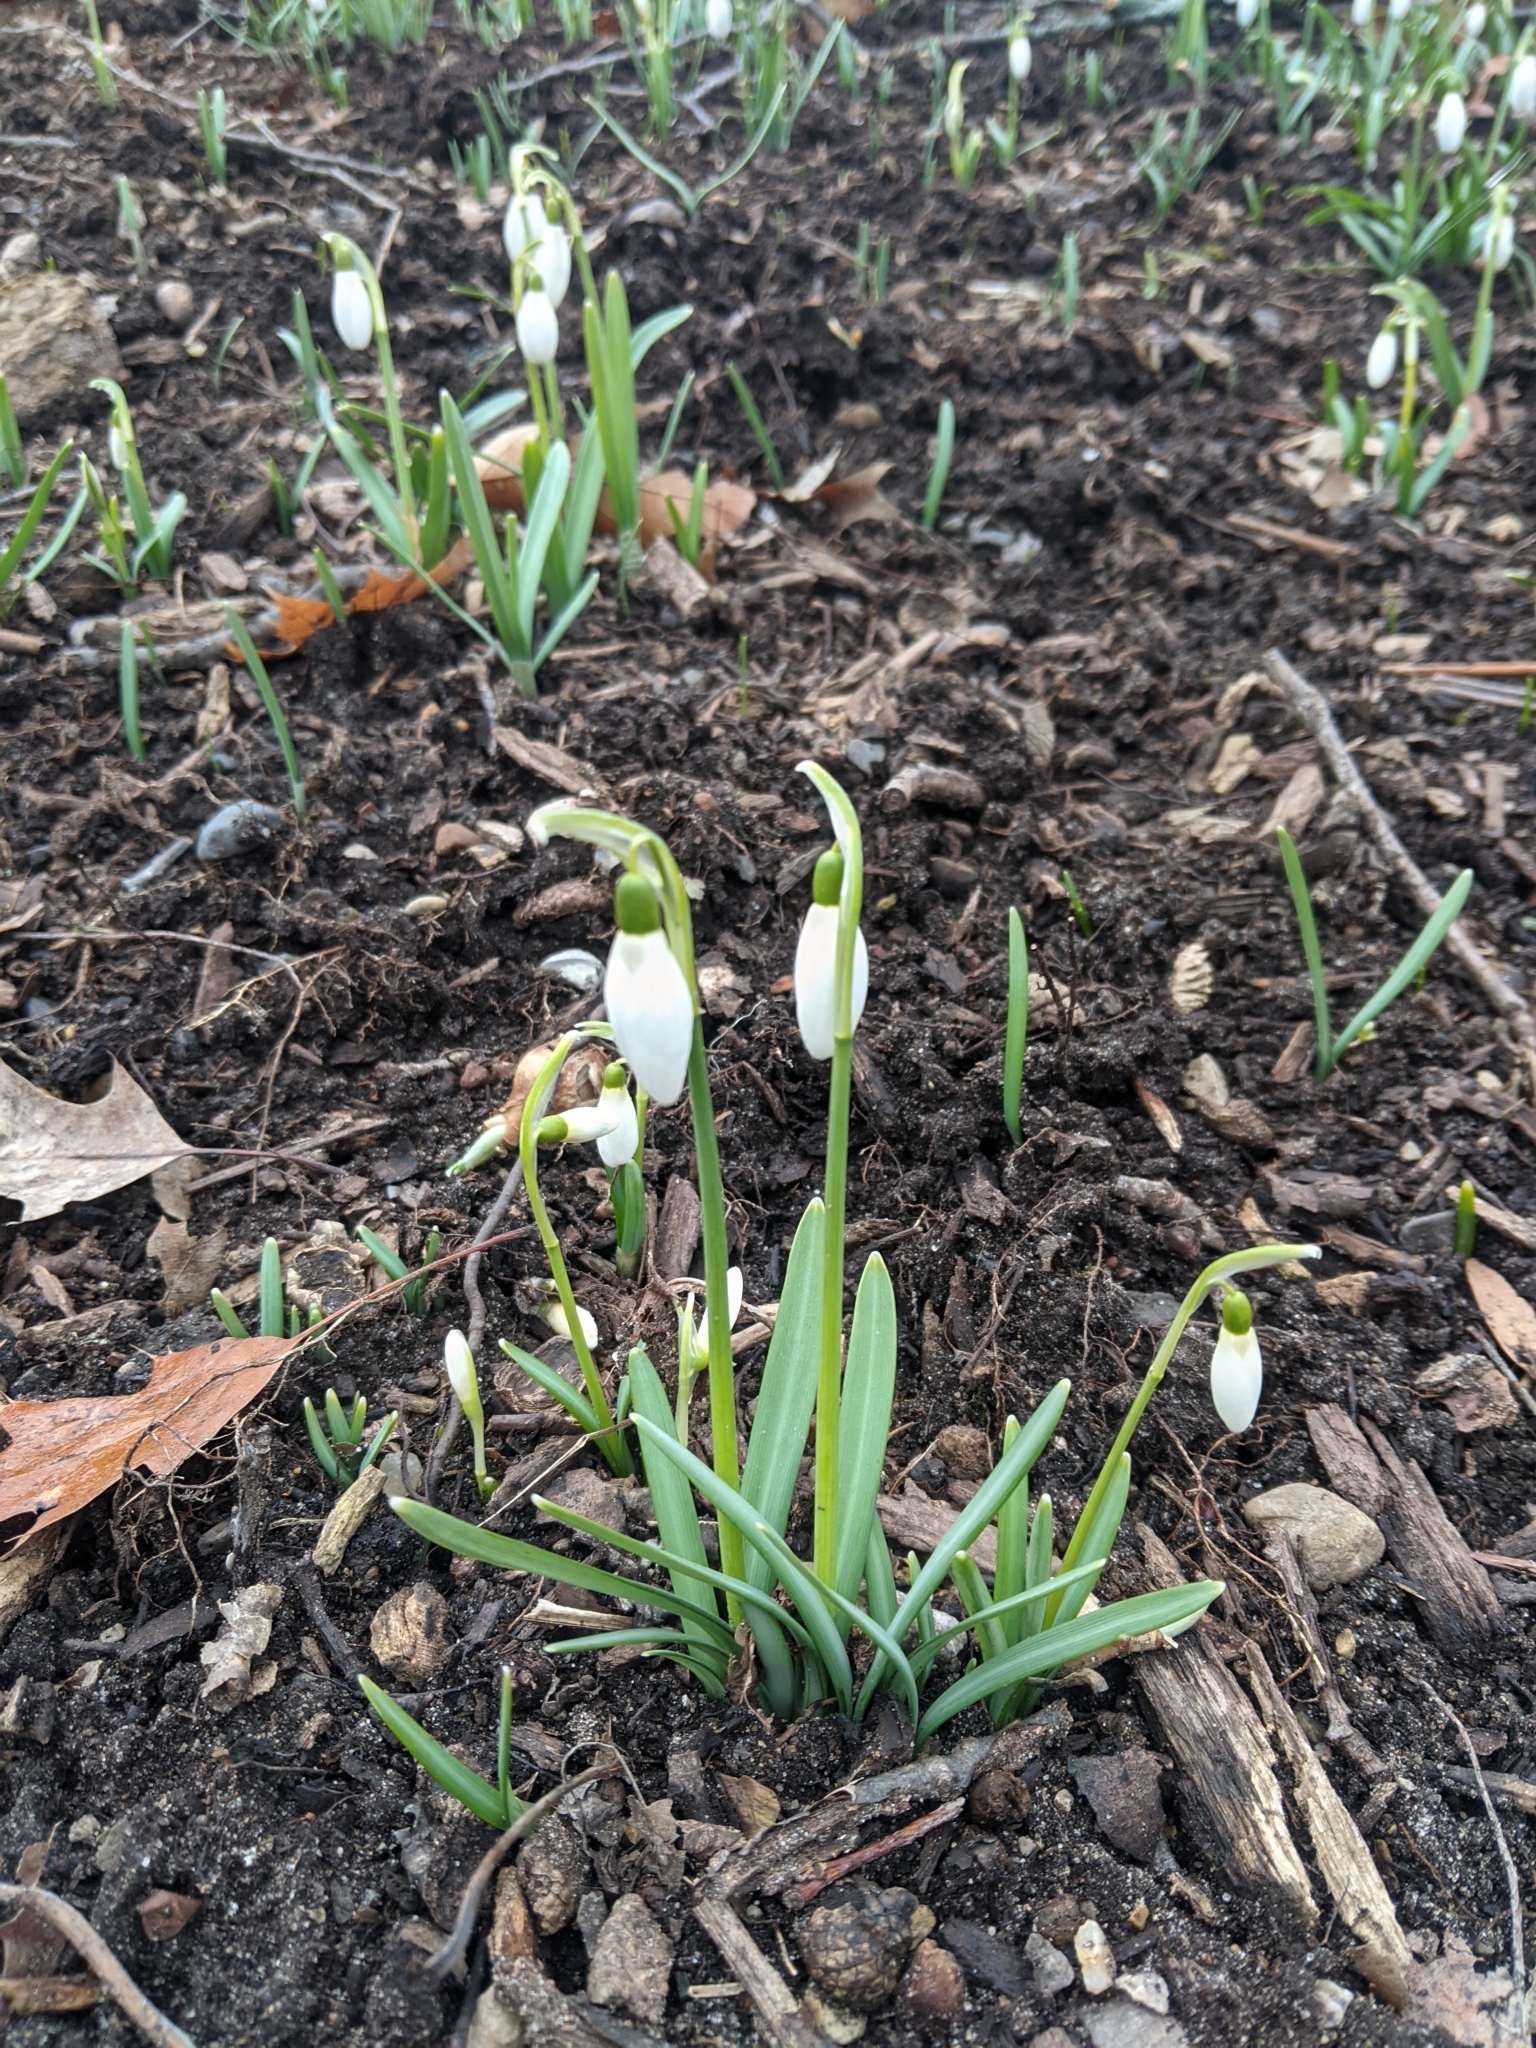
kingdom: Plantae
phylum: Tracheophyta
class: Liliopsida
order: Asparagales
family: Amaryllidaceae
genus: Galanthus
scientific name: Galanthus nivalis
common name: Snowdrop
